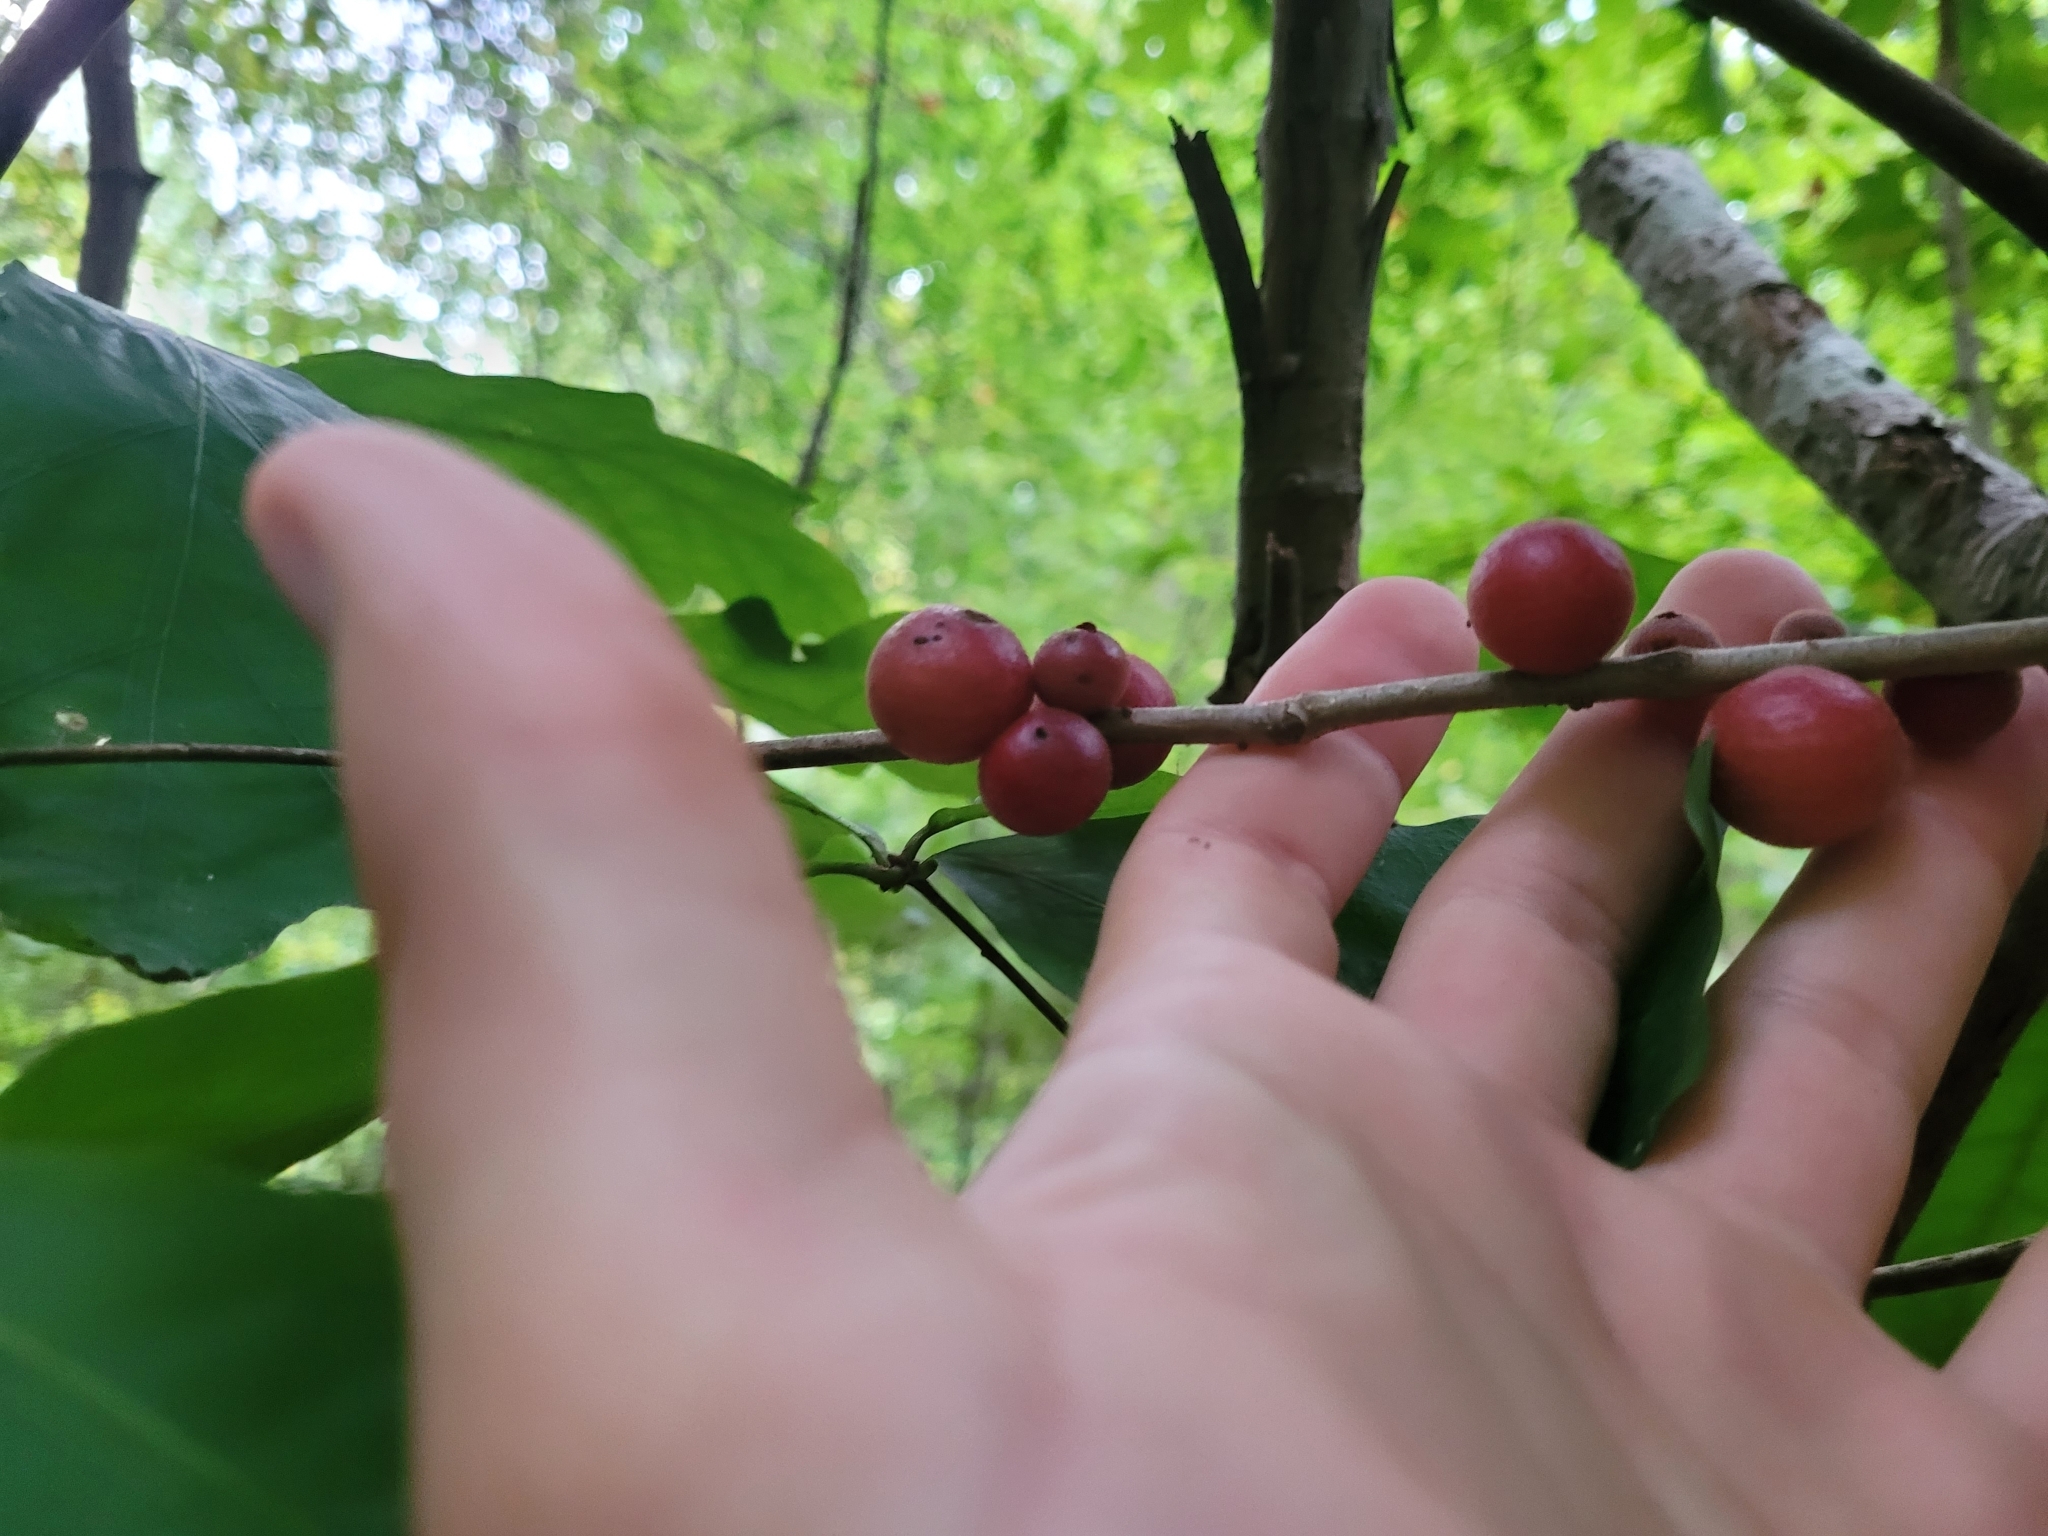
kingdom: Animalia
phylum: Arthropoda
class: Insecta
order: Hymenoptera
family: Cynipidae
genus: Disholcaspis
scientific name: Disholcaspis
